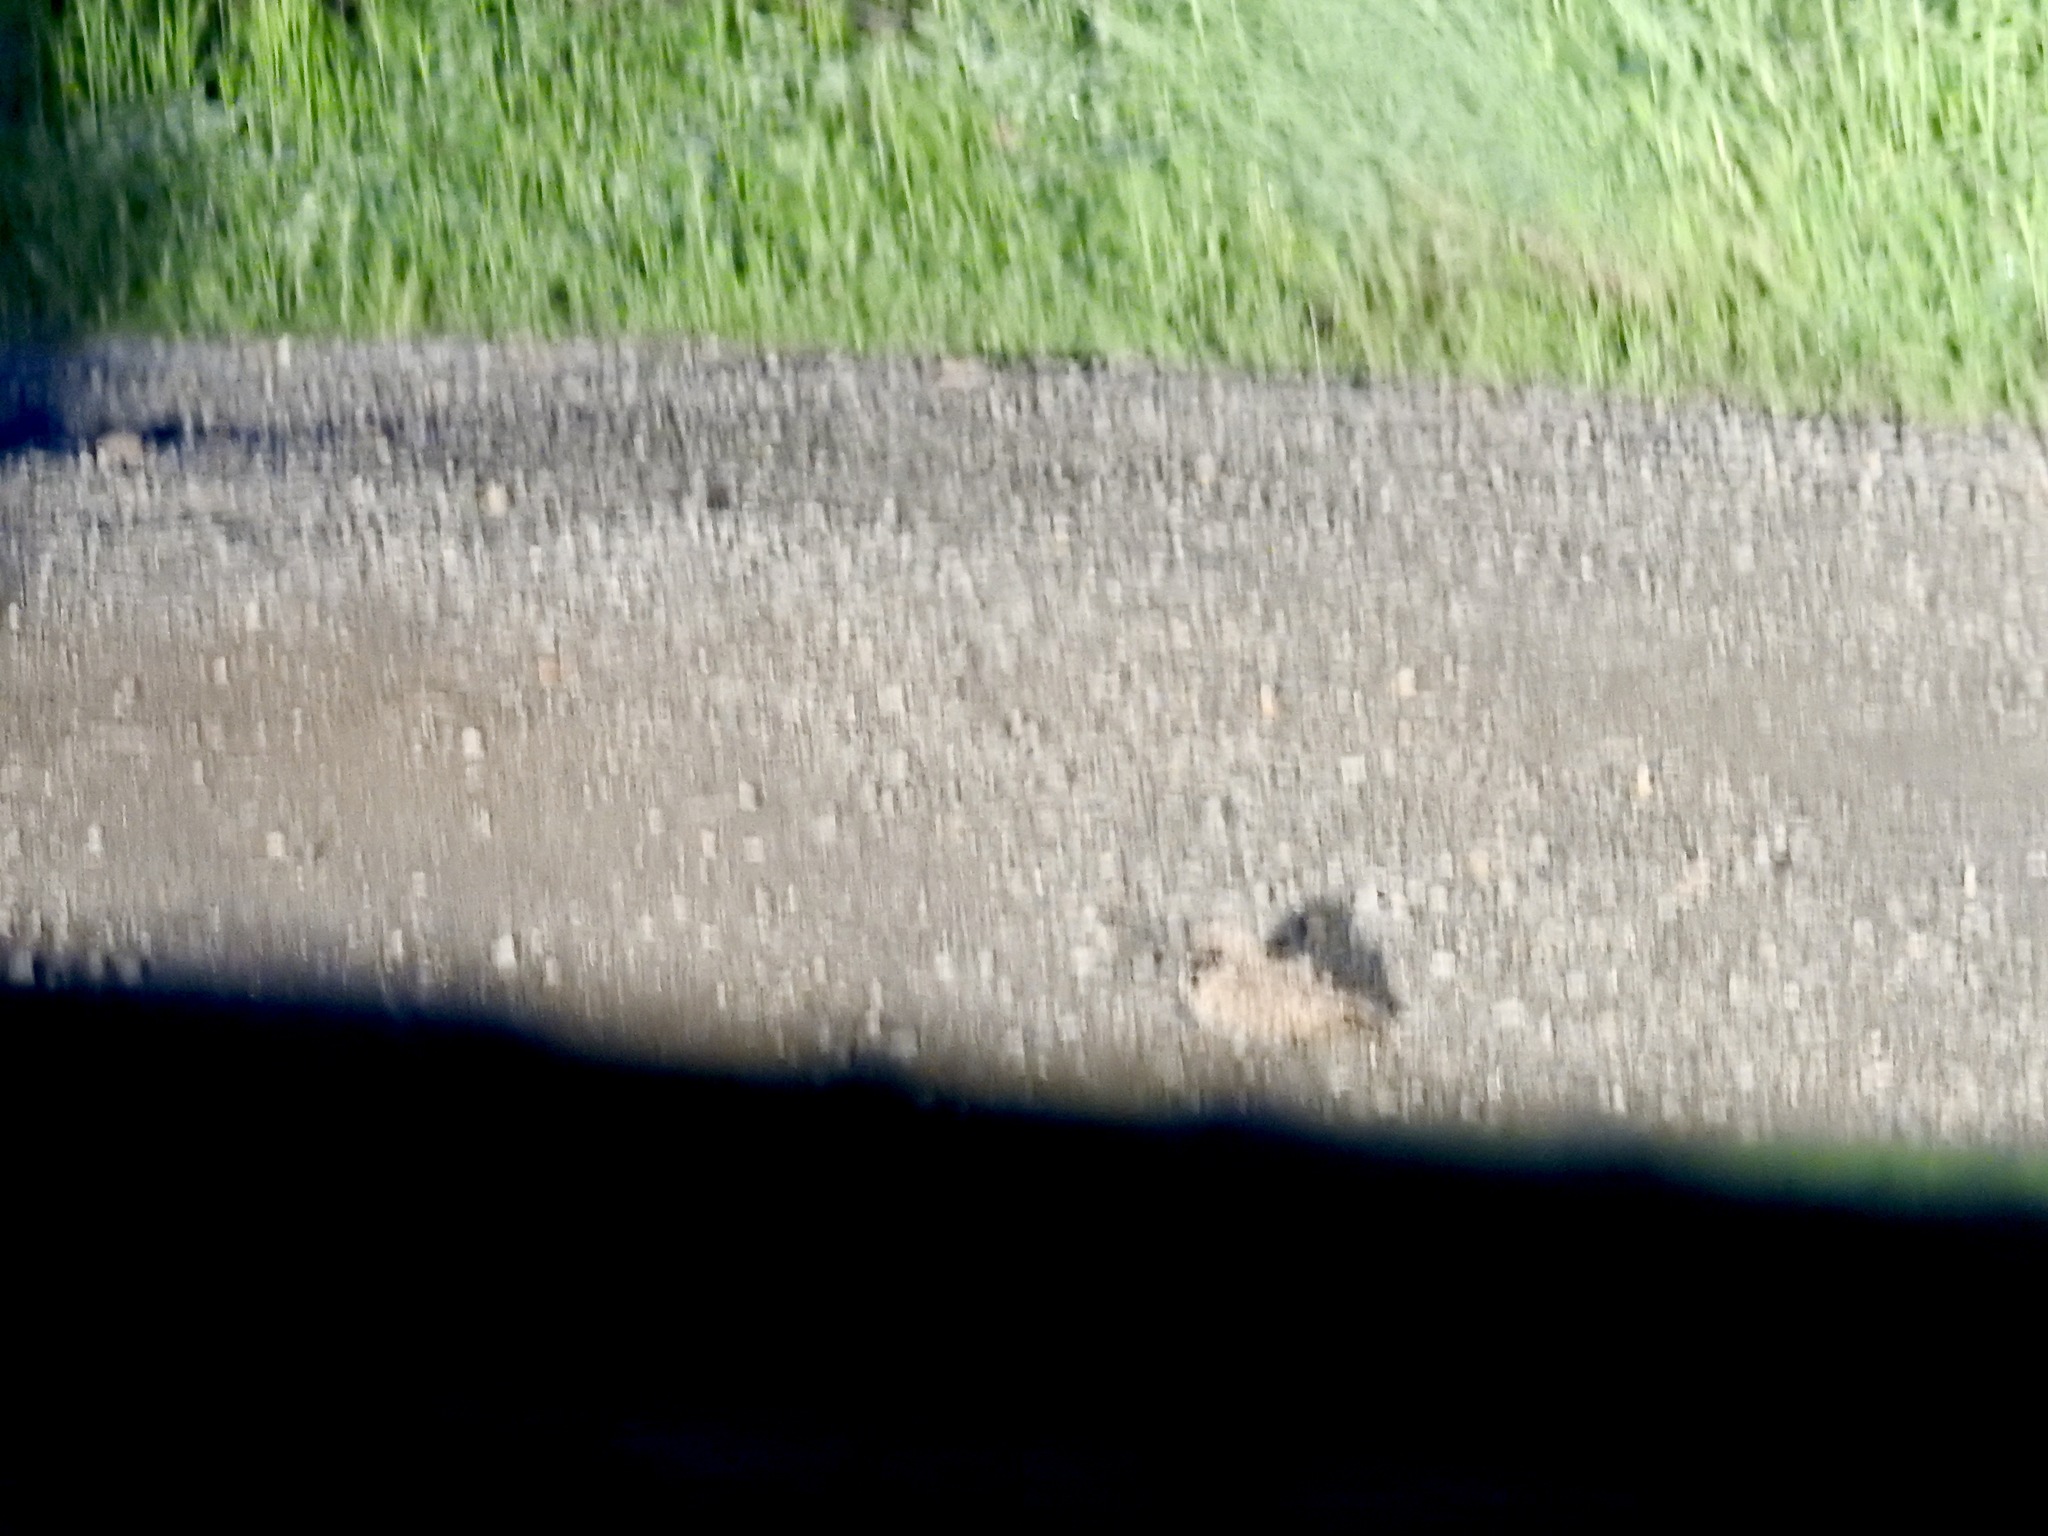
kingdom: Animalia
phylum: Chordata
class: Aves
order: Caprimulgiformes
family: Caprimulgidae
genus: Phalaenoptilus
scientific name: Phalaenoptilus nuttallii
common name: Common poorwill
